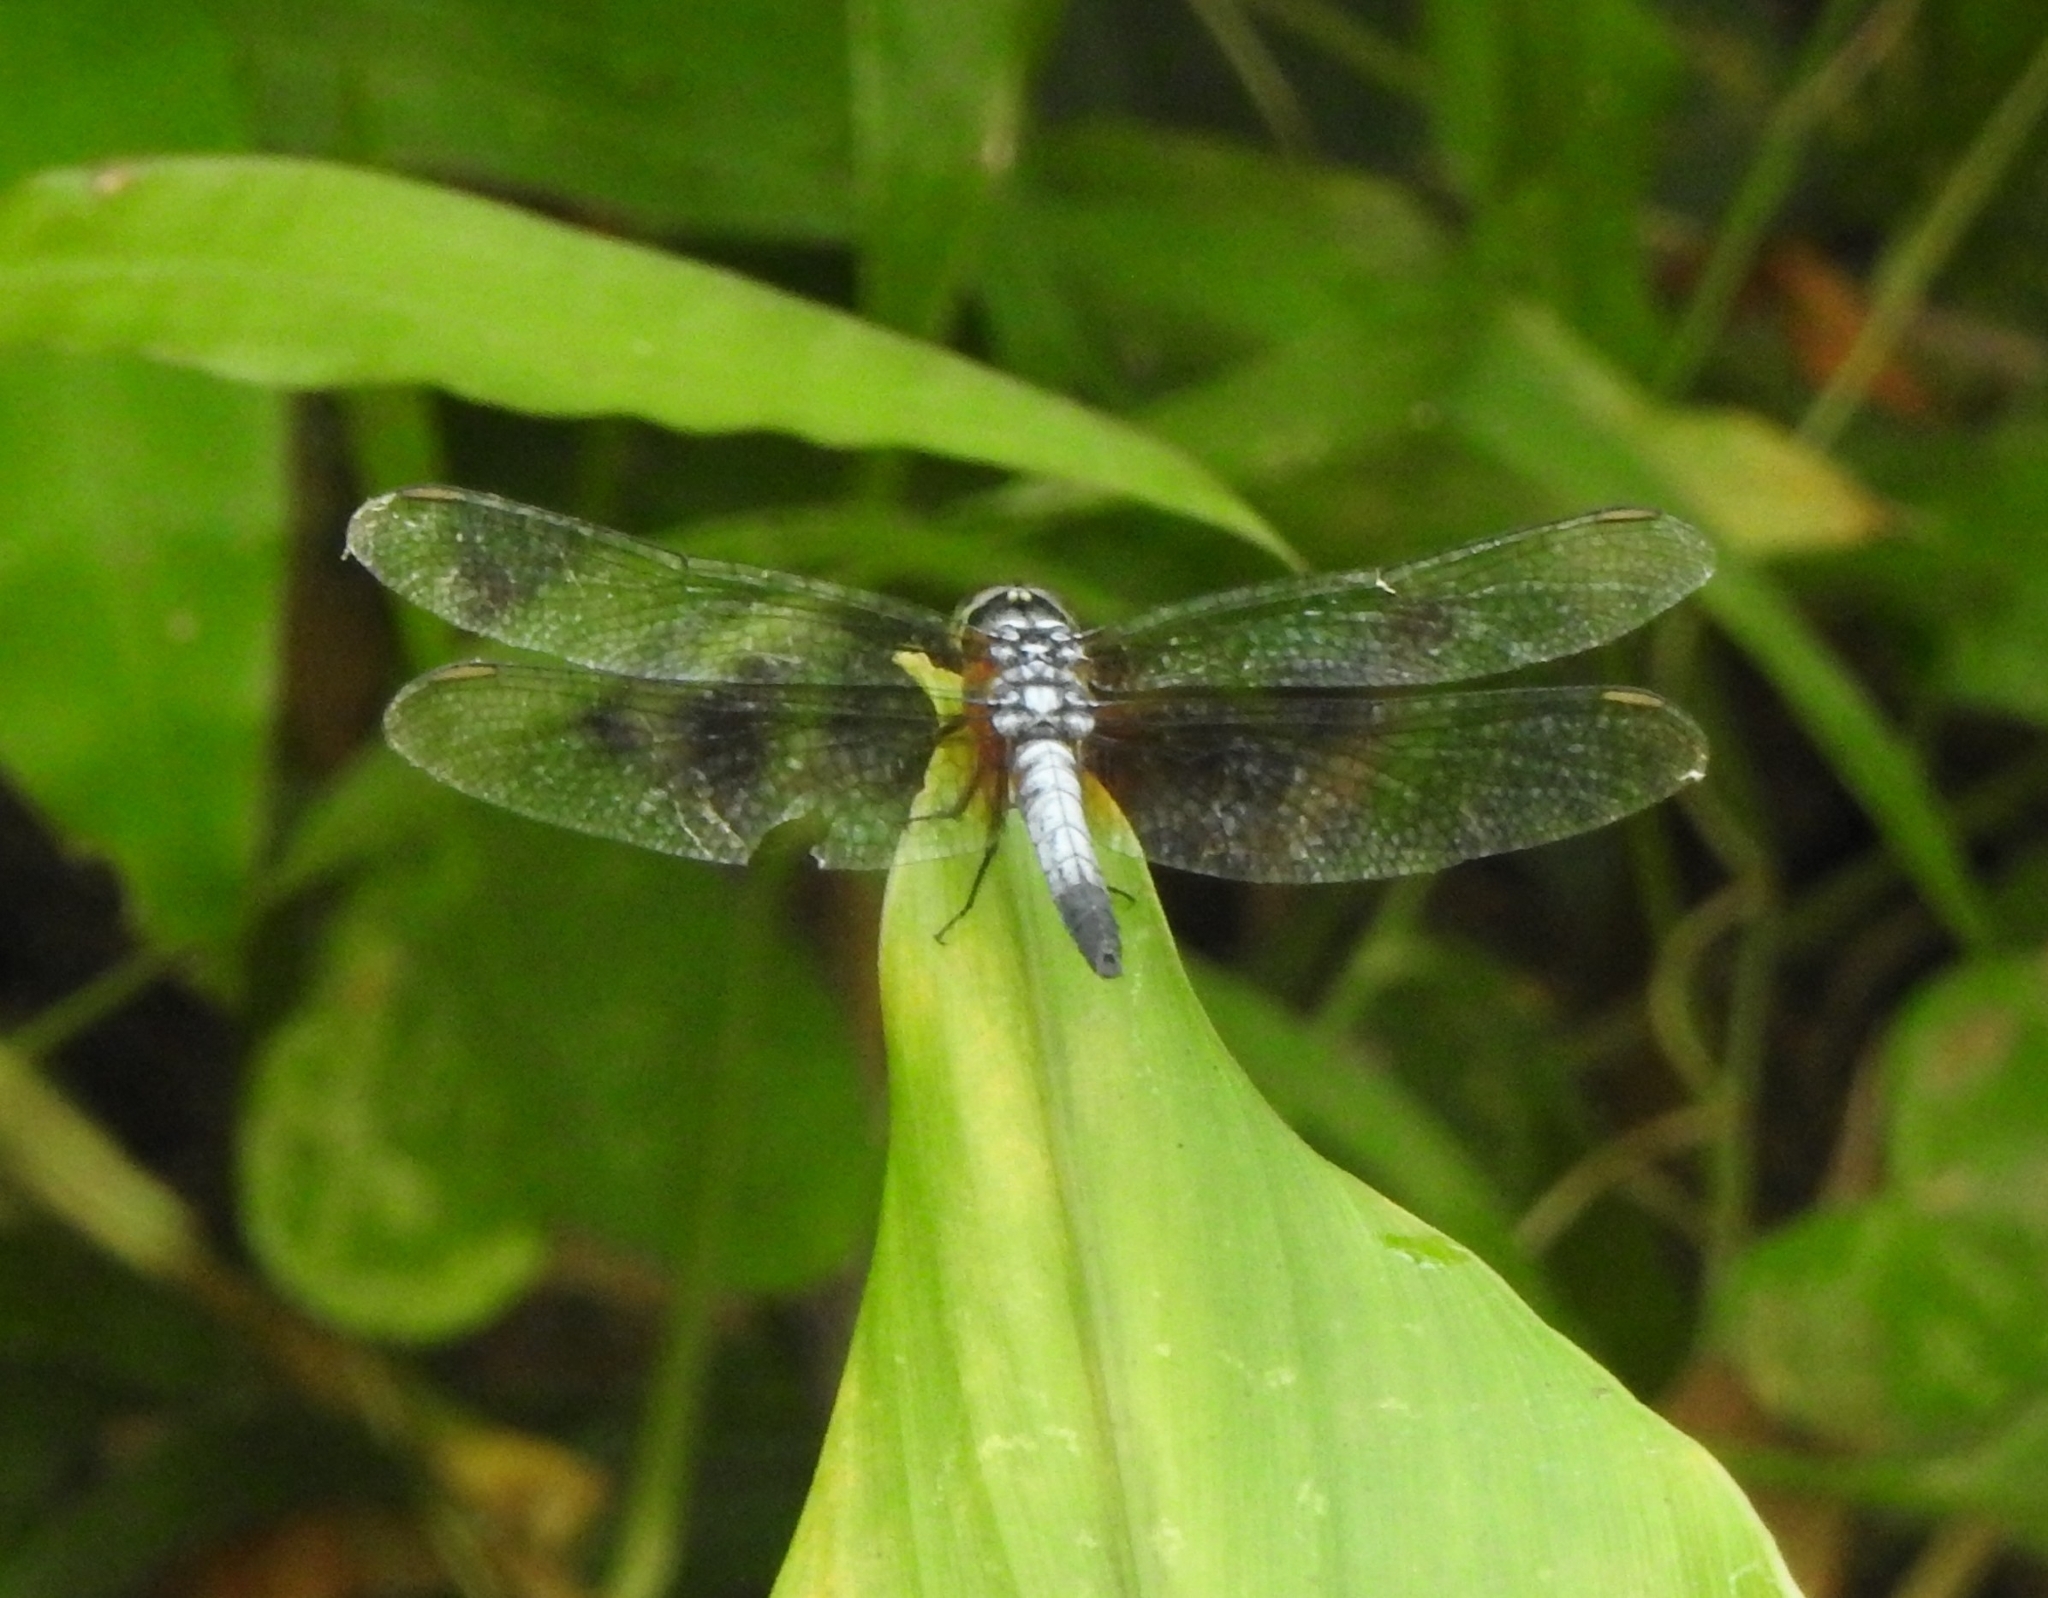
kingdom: Animalia
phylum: Arthropoda
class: Insecta
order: Odonata
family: Libellulidae
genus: Brachydiplax
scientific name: Brachydiplax chalybea
